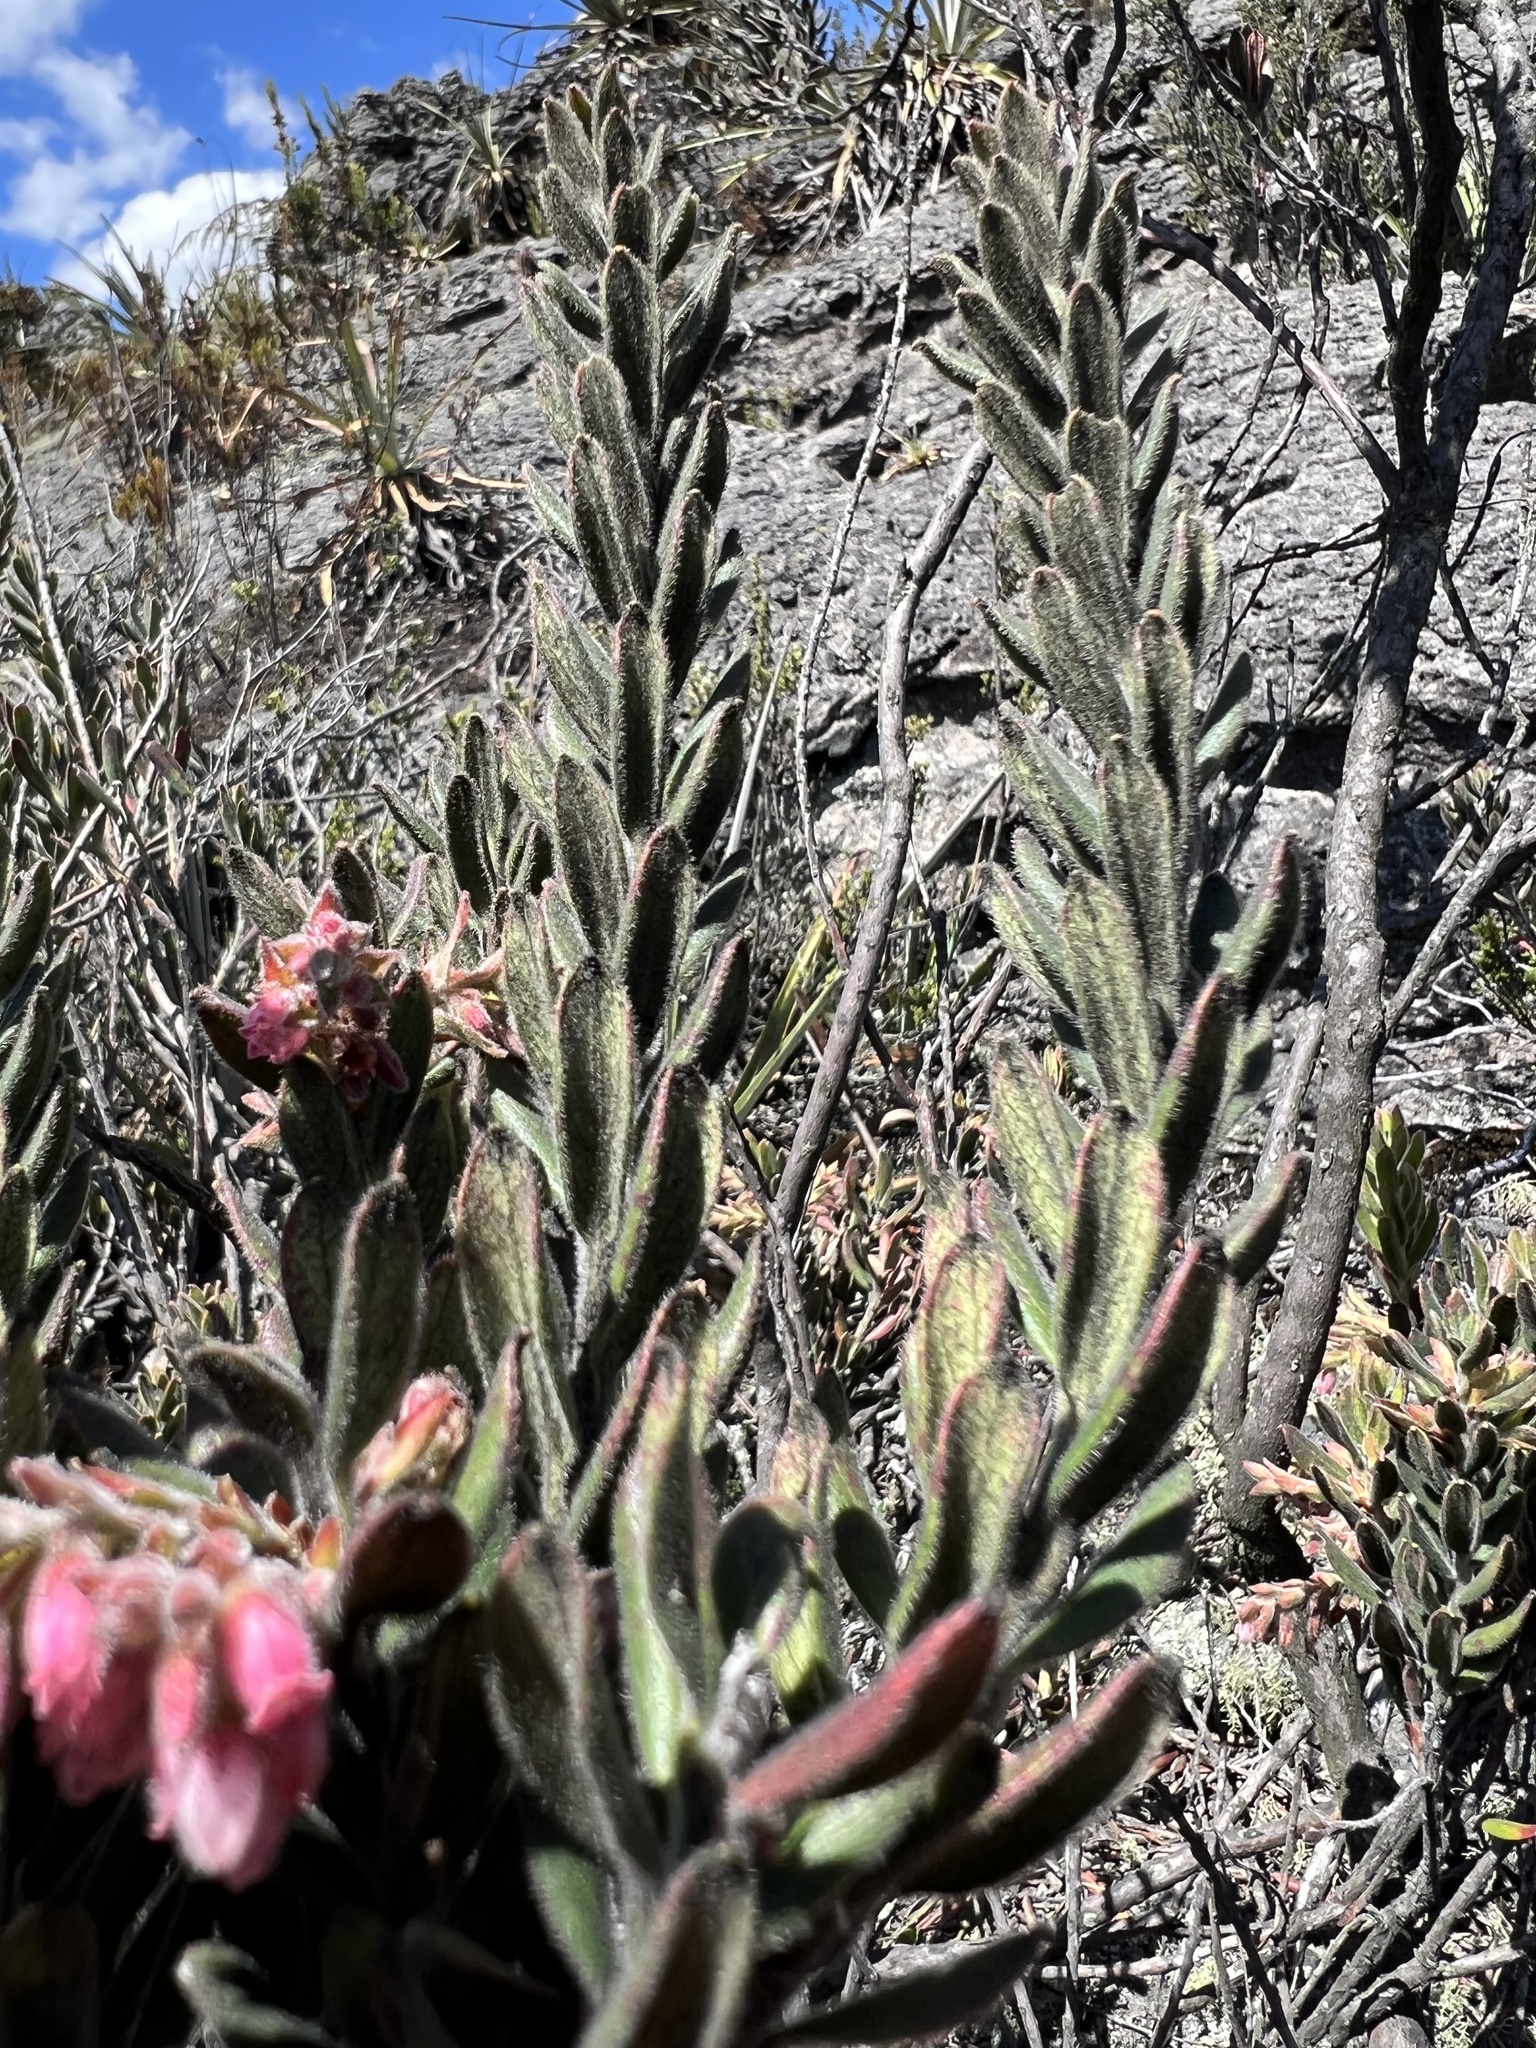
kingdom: Plantae
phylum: Tracheophyta
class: Magnoliopsida
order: Ericales
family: Ericaceae
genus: Gaylussacia
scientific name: Gaylussacia buxifolia
